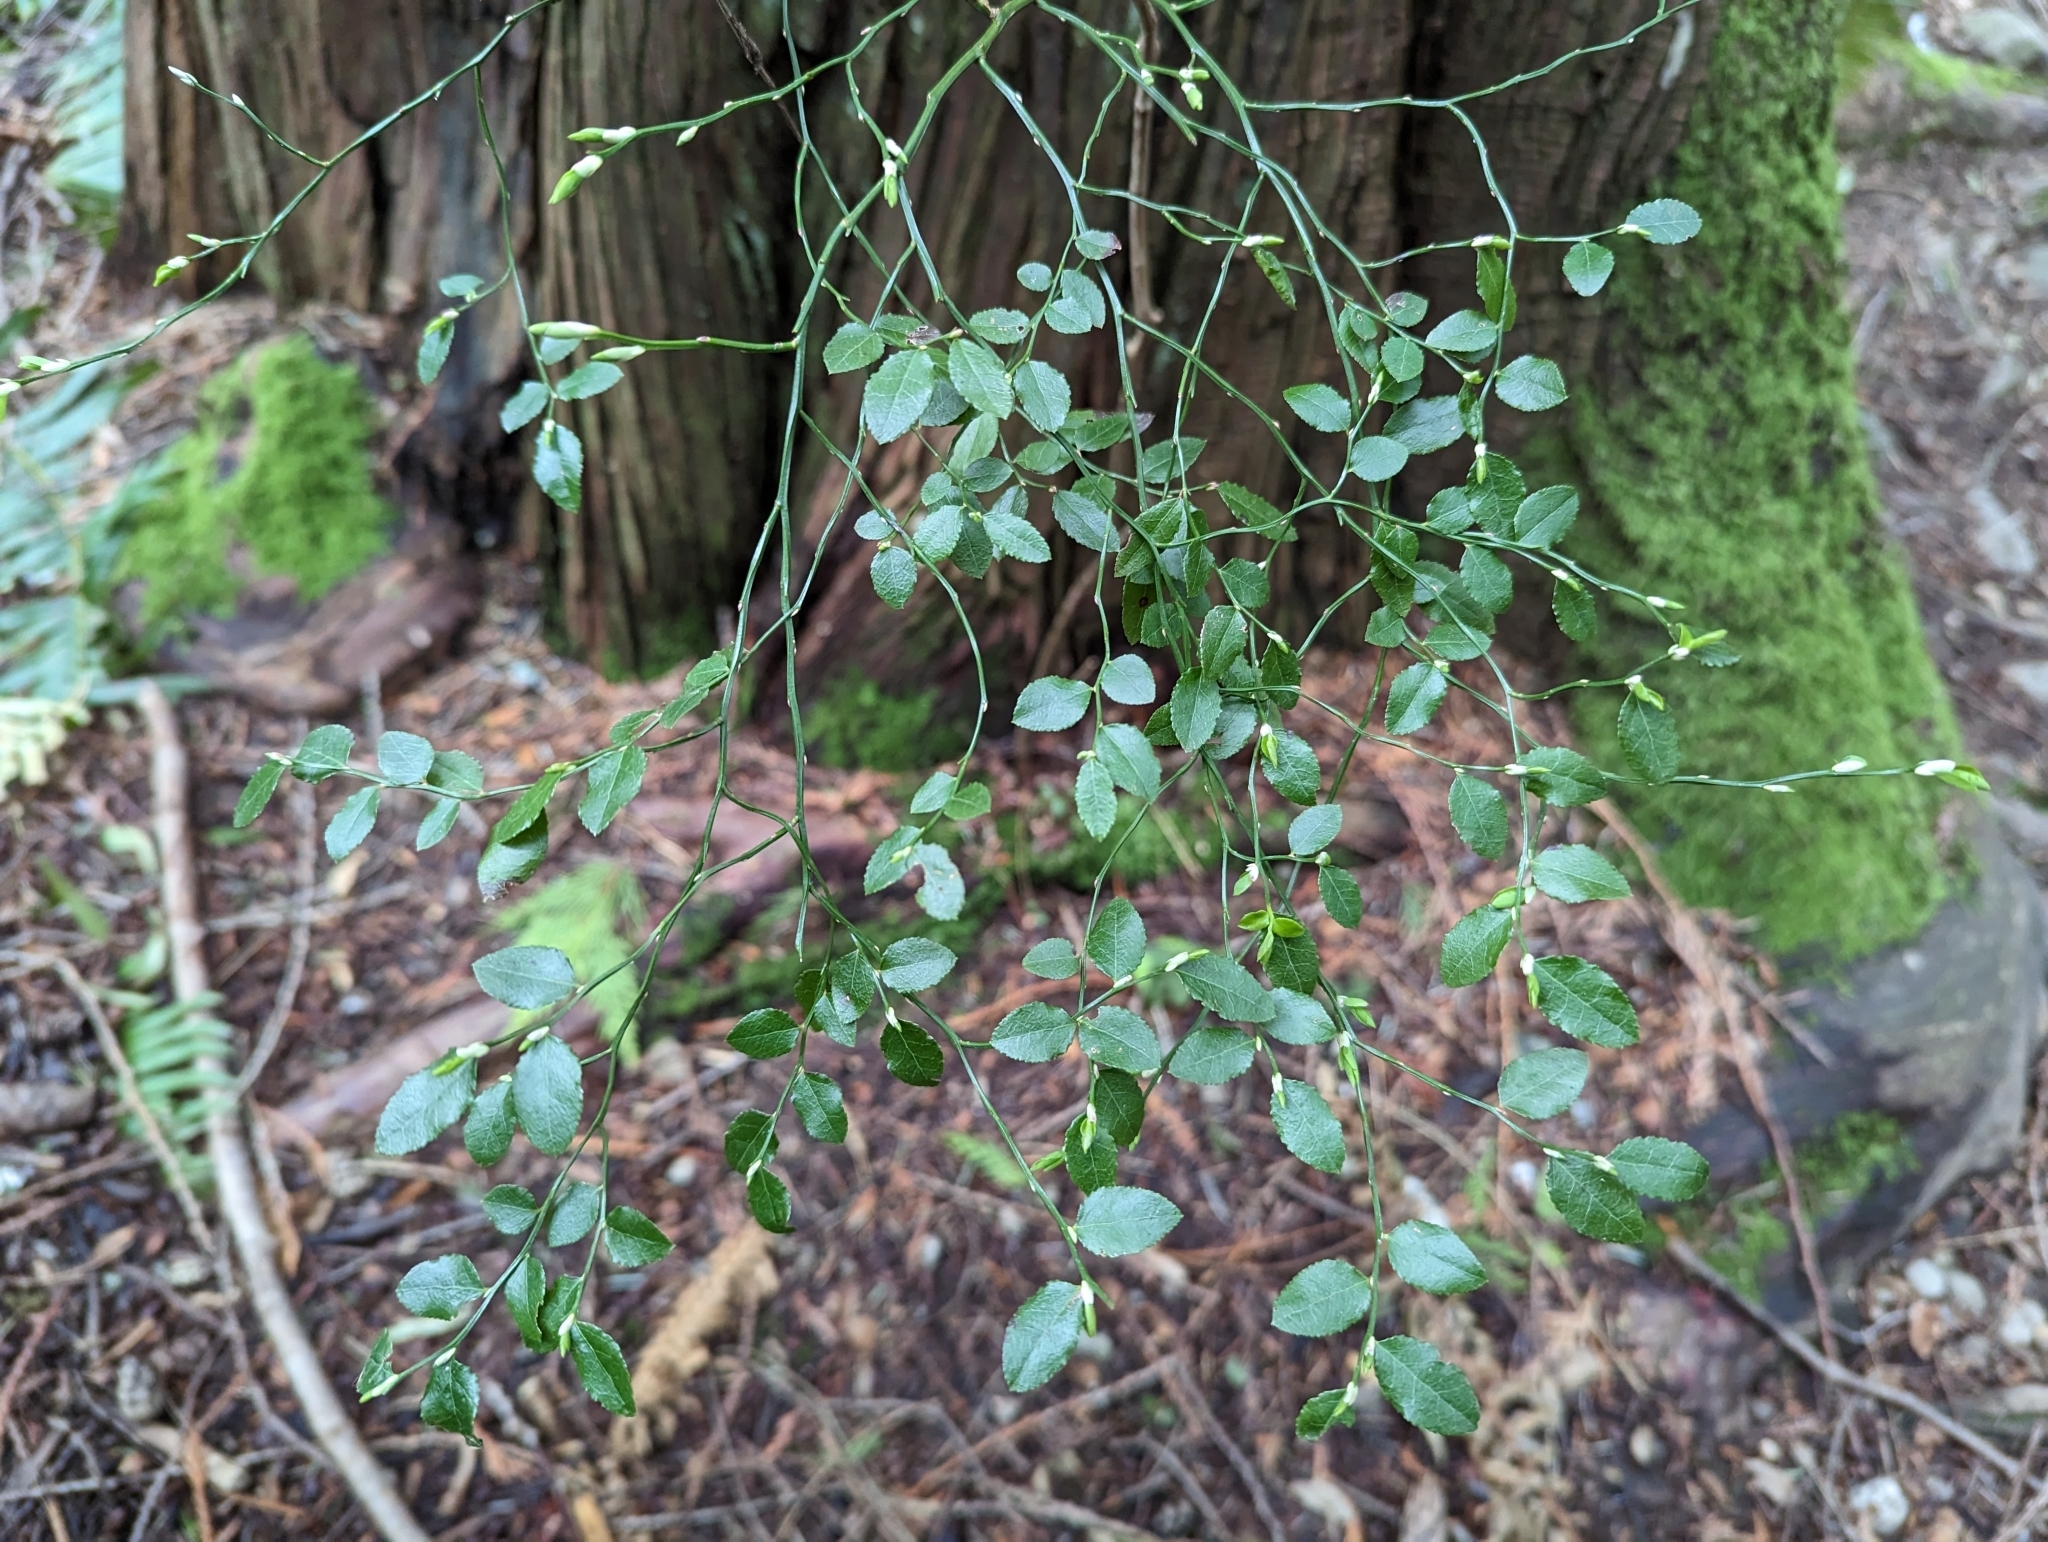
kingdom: Plantae
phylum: Tracheophyta
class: Magnoliopsida
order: Ericales
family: Ericaceae
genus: Vaccinium
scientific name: Vaccinium parvifolium
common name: Red-huckleberry
